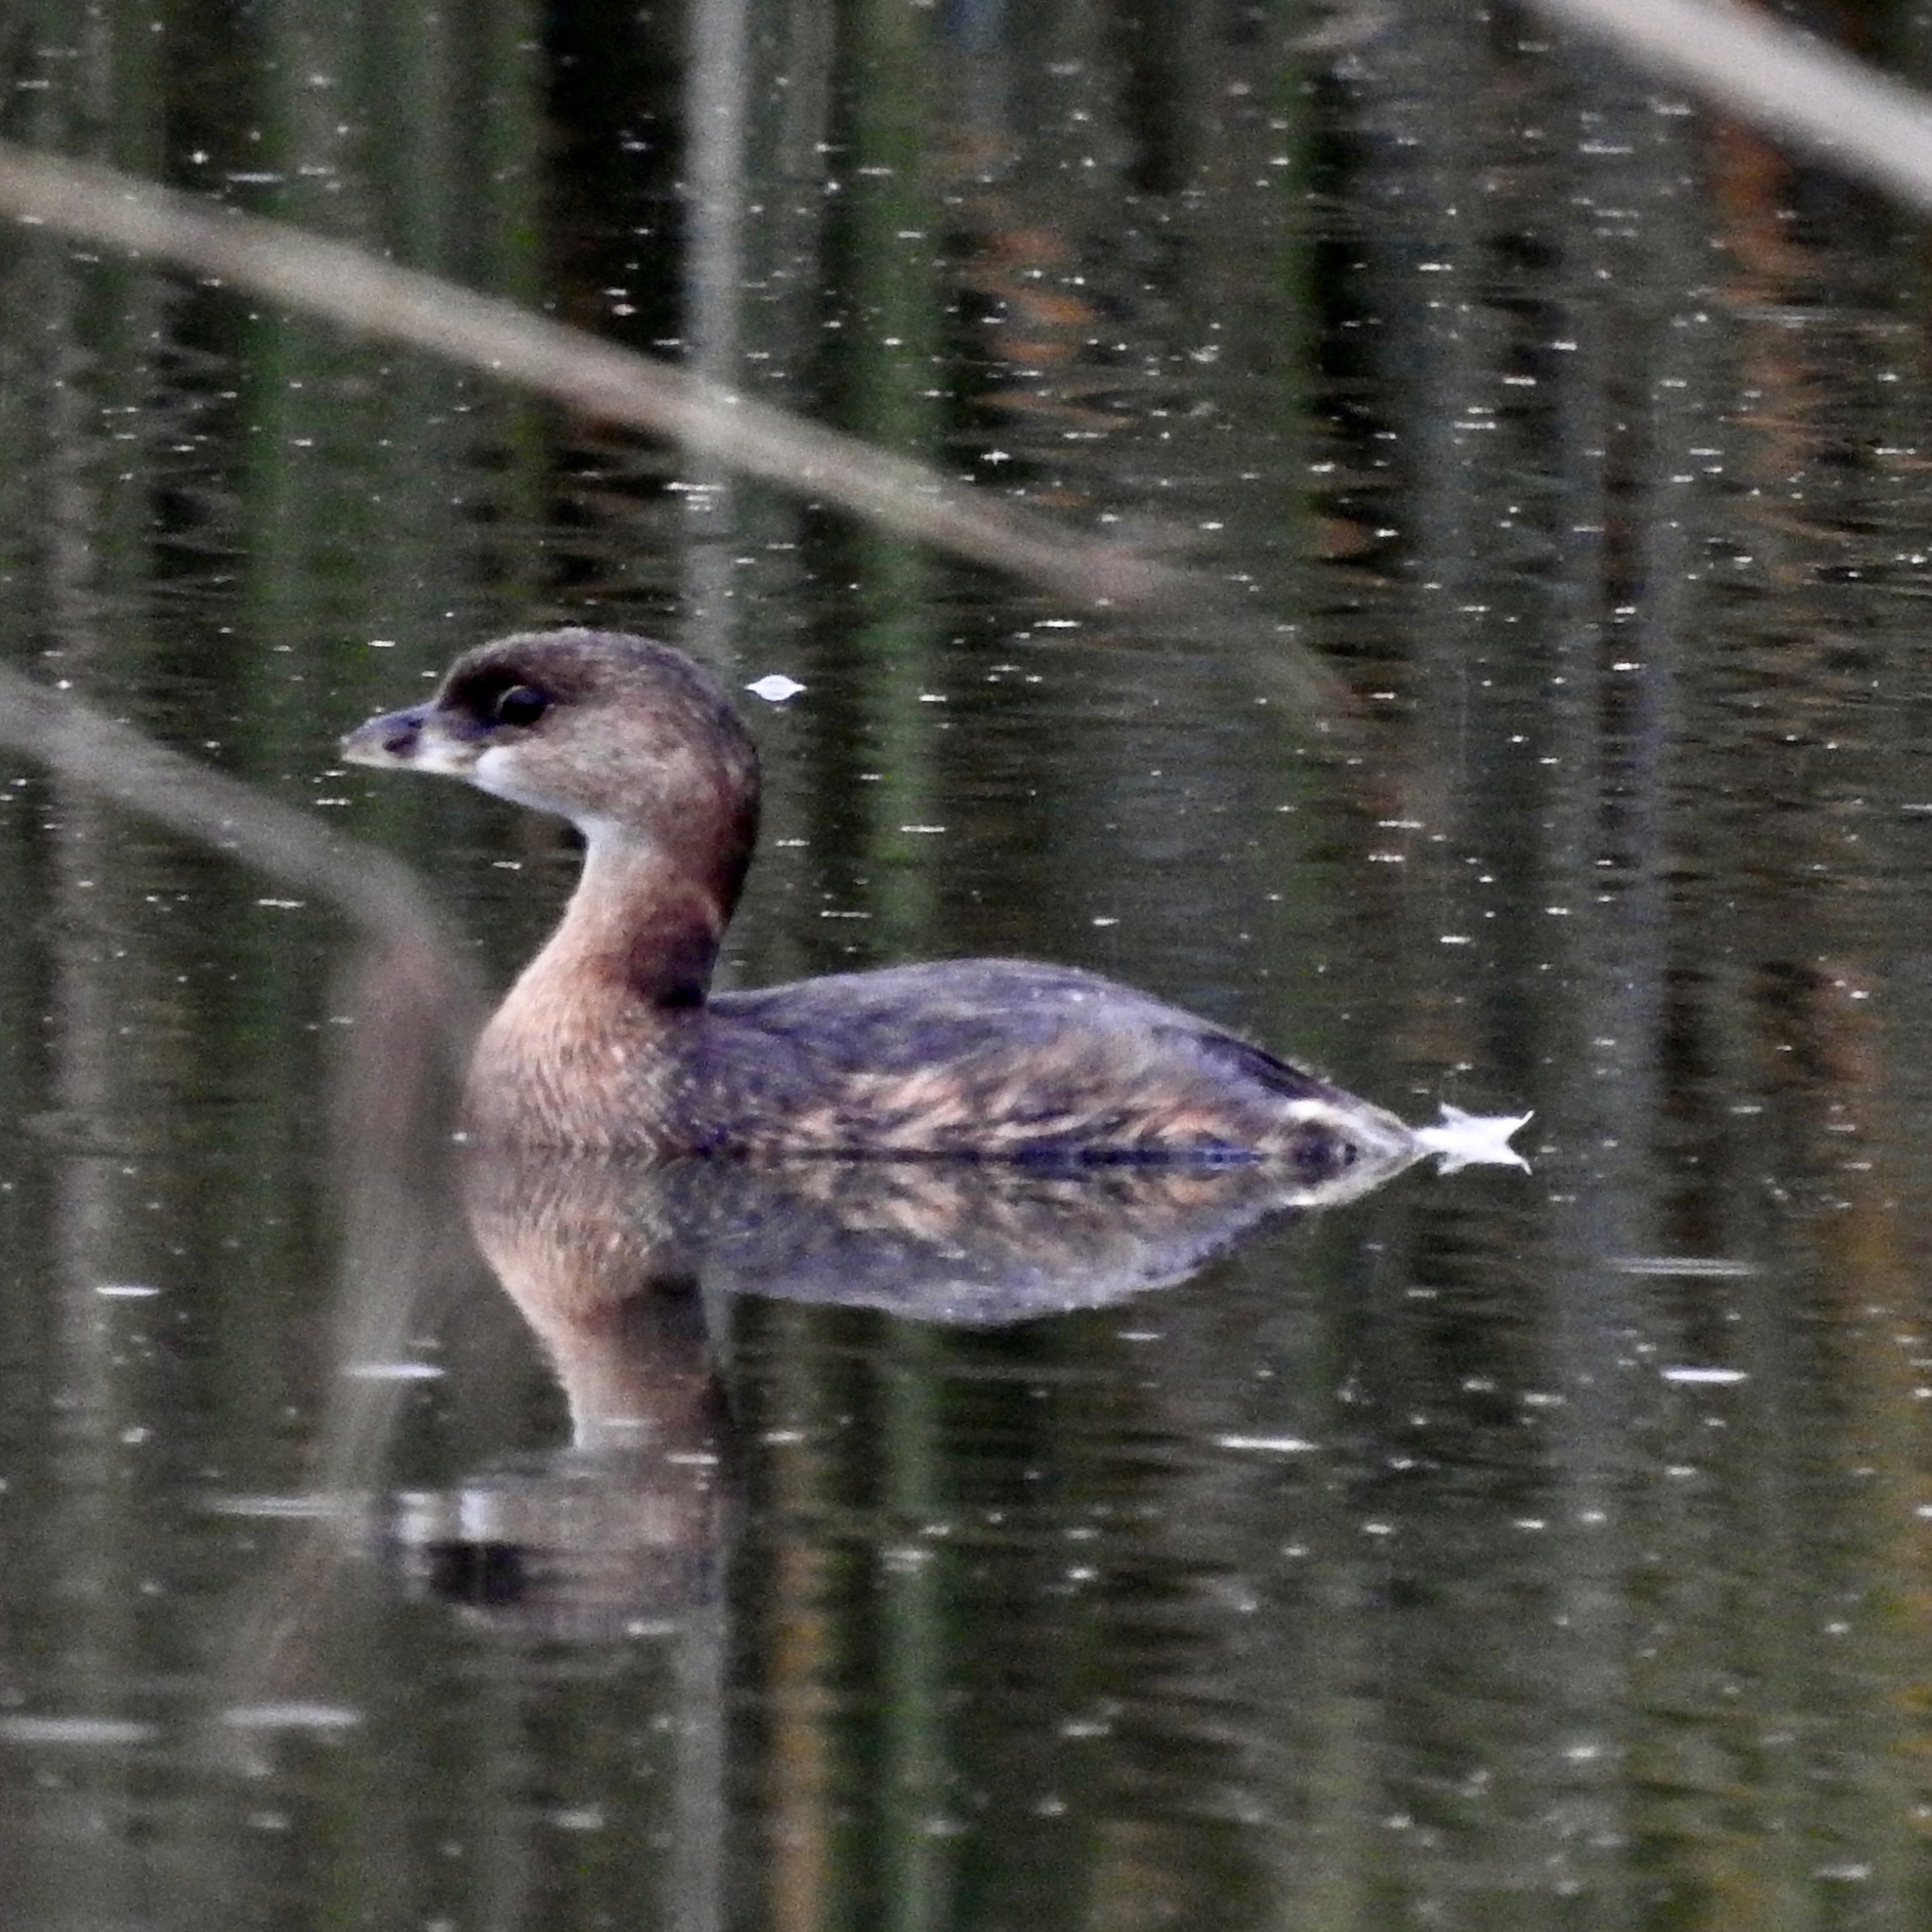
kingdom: Animalia
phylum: Chordata
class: Aves
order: Podicipediformes
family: Podicipedidae
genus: Podilymbus
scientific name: Podilymbus podiceps
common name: Pied-billed grebe
